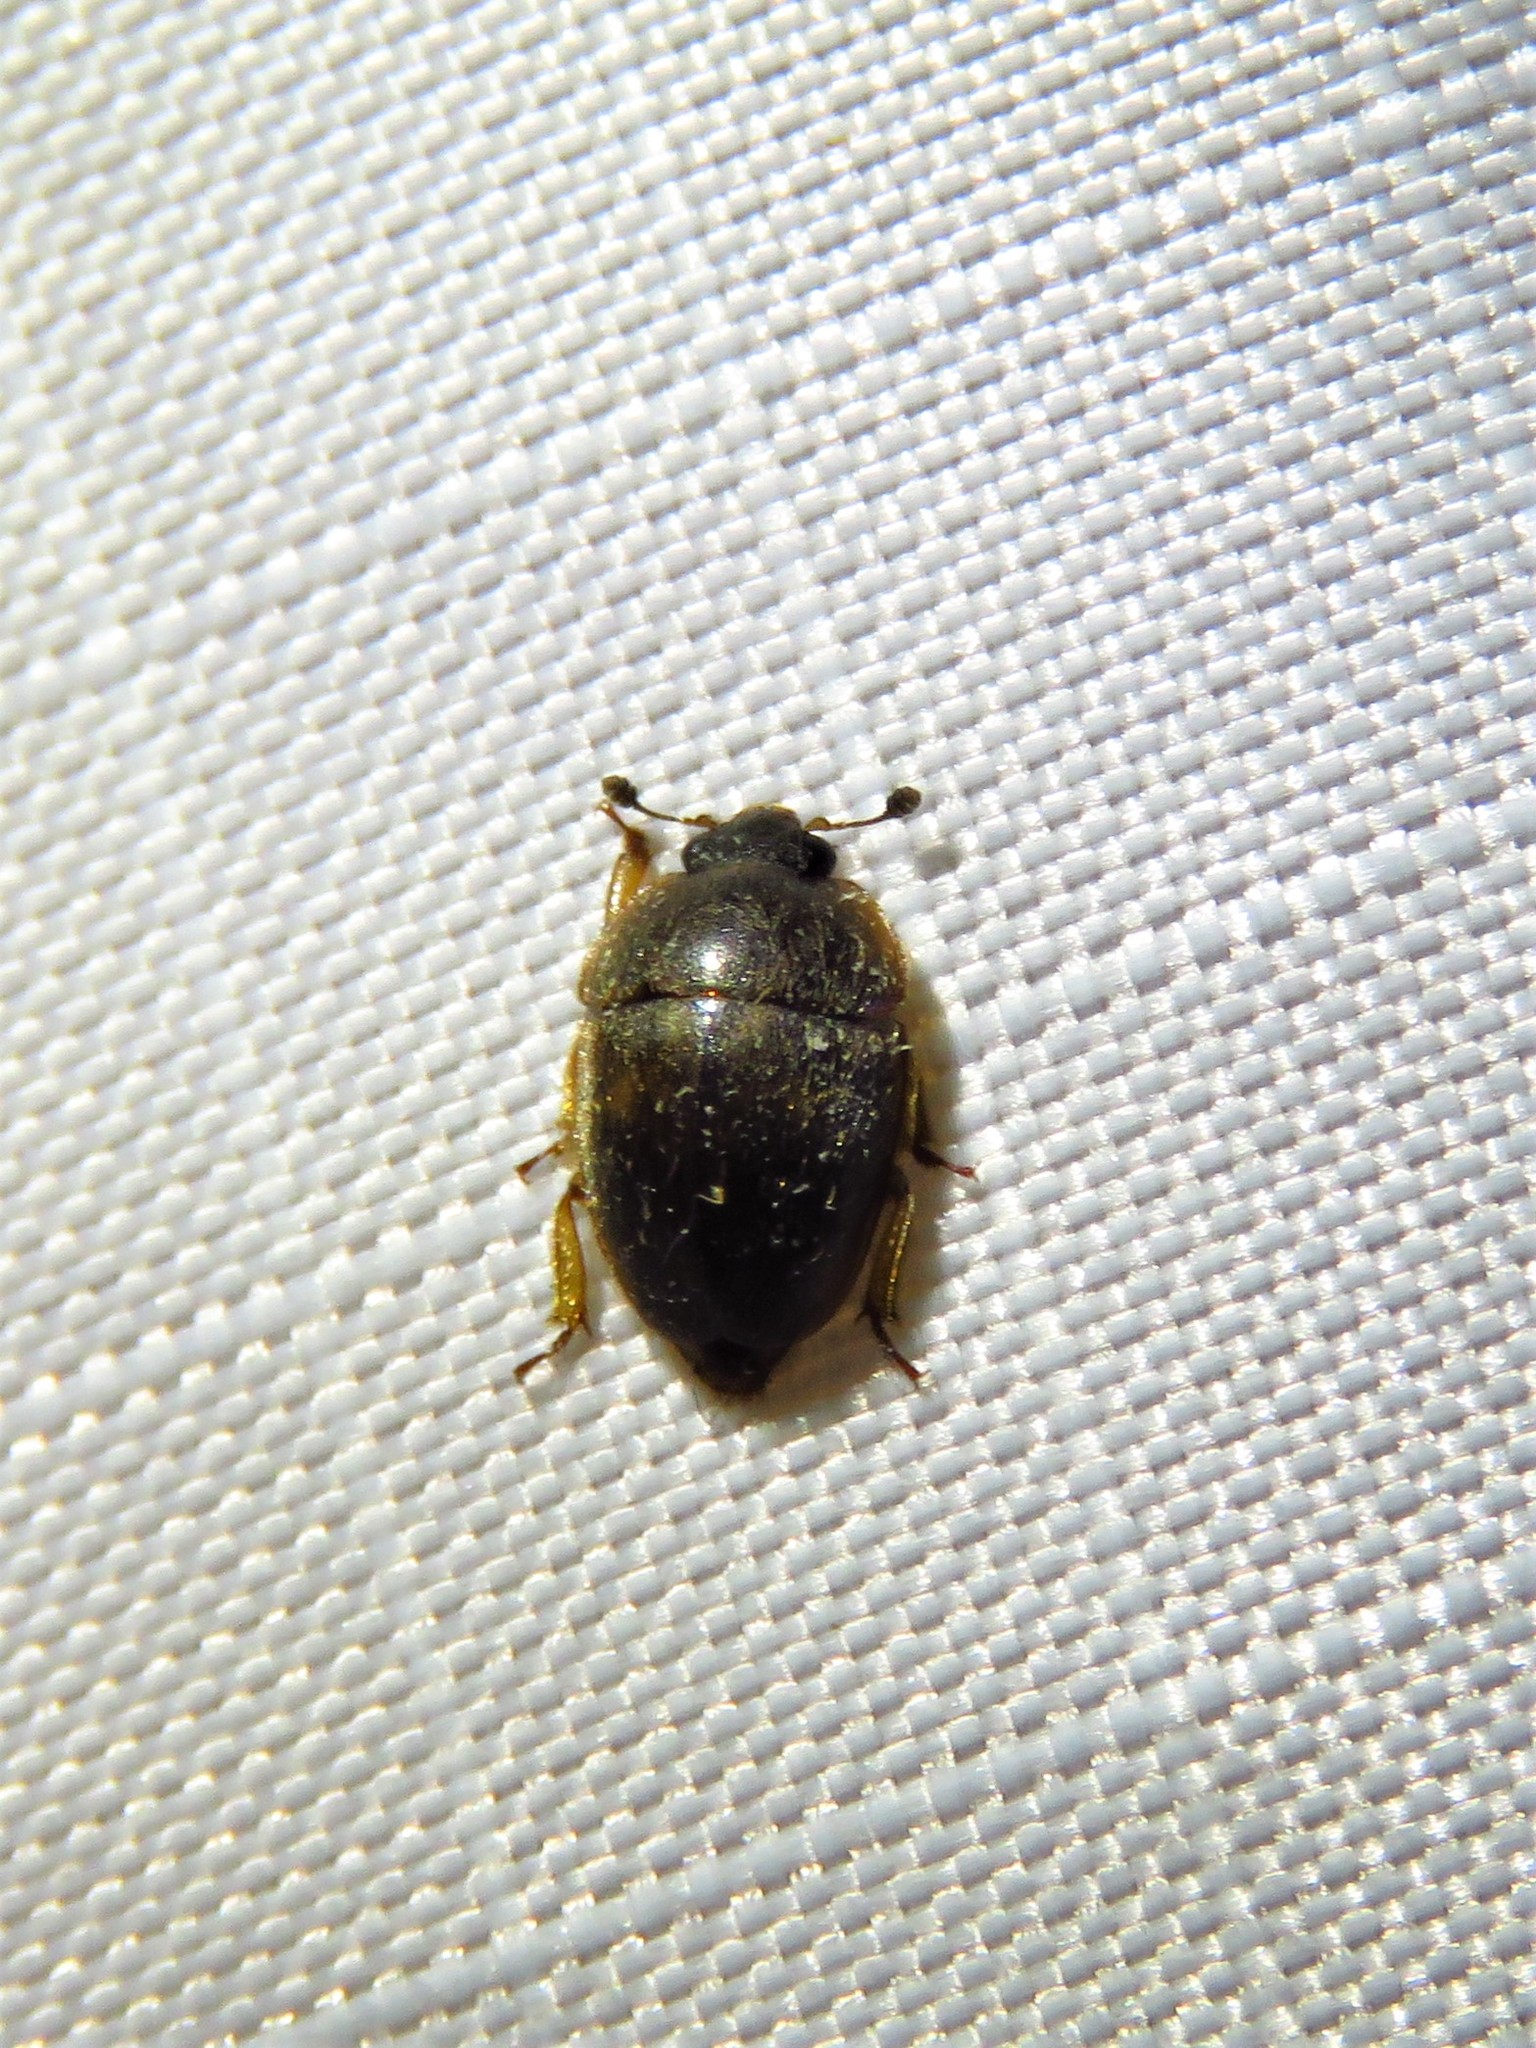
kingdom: Animalia
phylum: Arthropoda
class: Insecta
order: Coleoptera
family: Nitidulidae
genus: Amphicrossus
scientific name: Amphicrossus ciliatus
